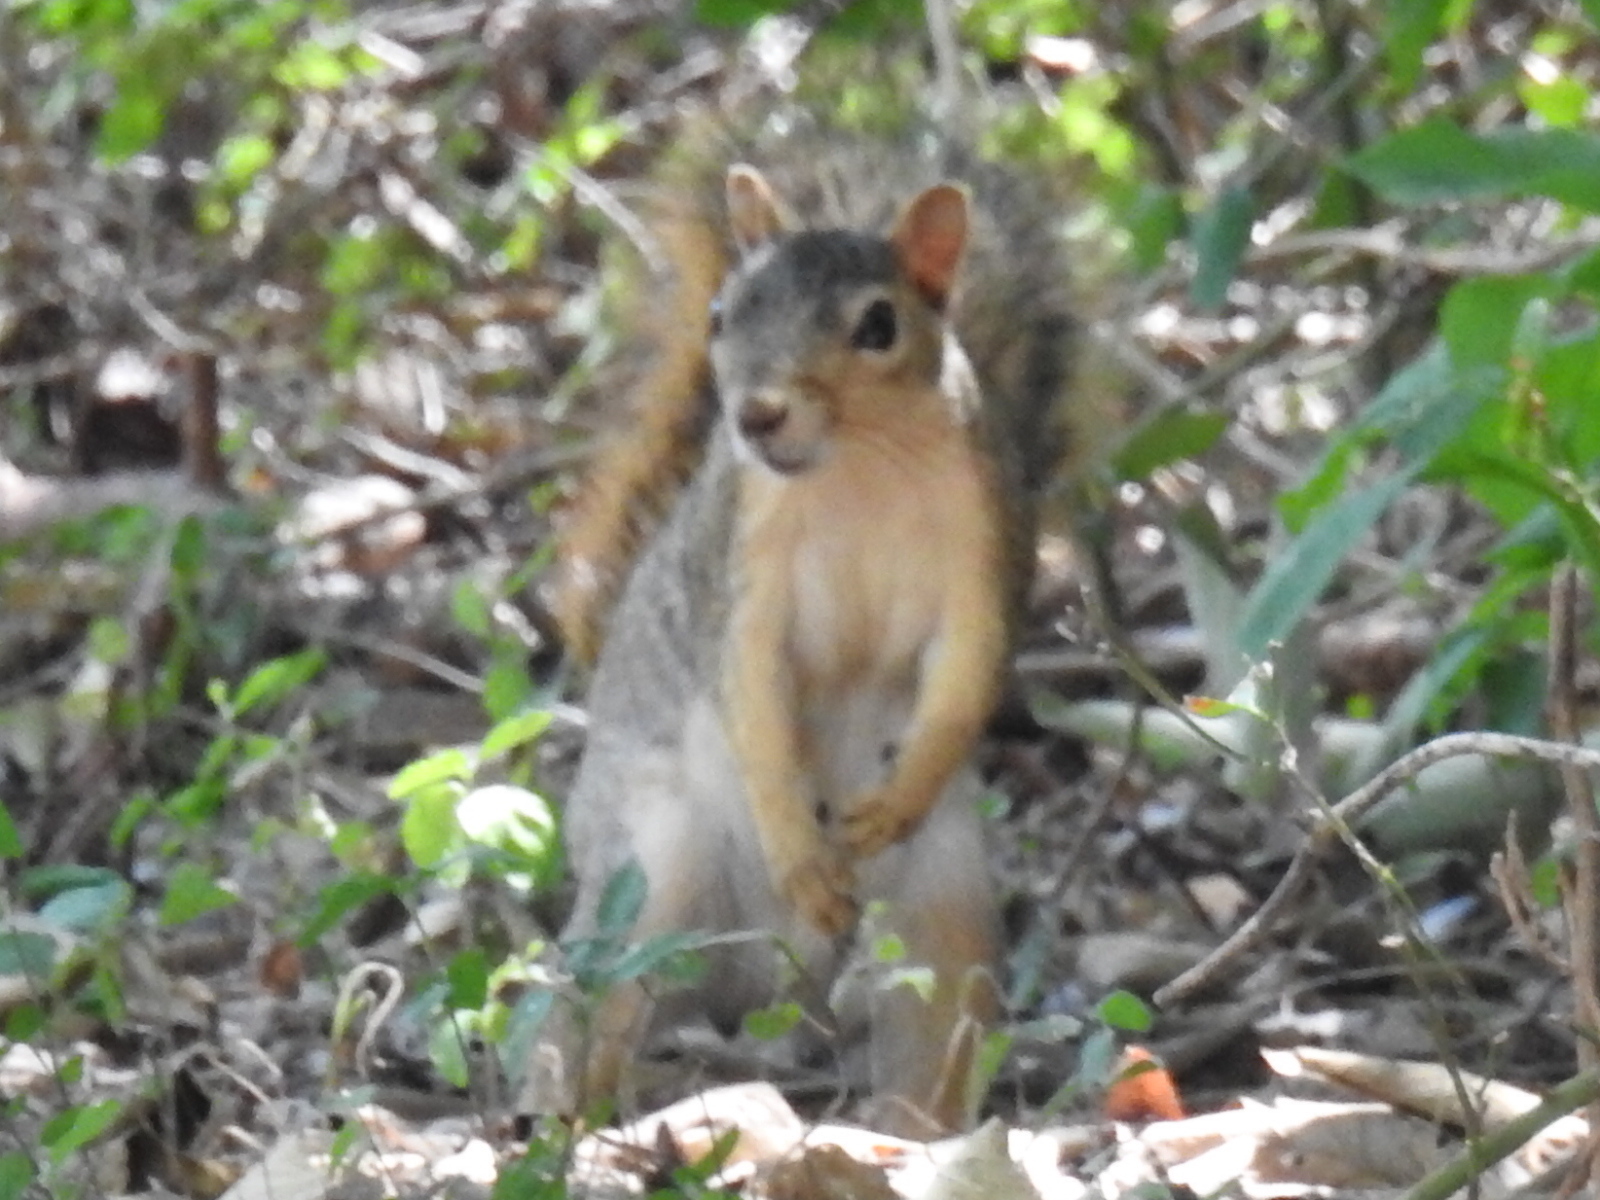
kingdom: Animalia
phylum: Chordata
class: Mammalia
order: Rodentia
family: Sciuridae
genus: Sciurus
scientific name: Sciurus niger
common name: Fox squirrel
